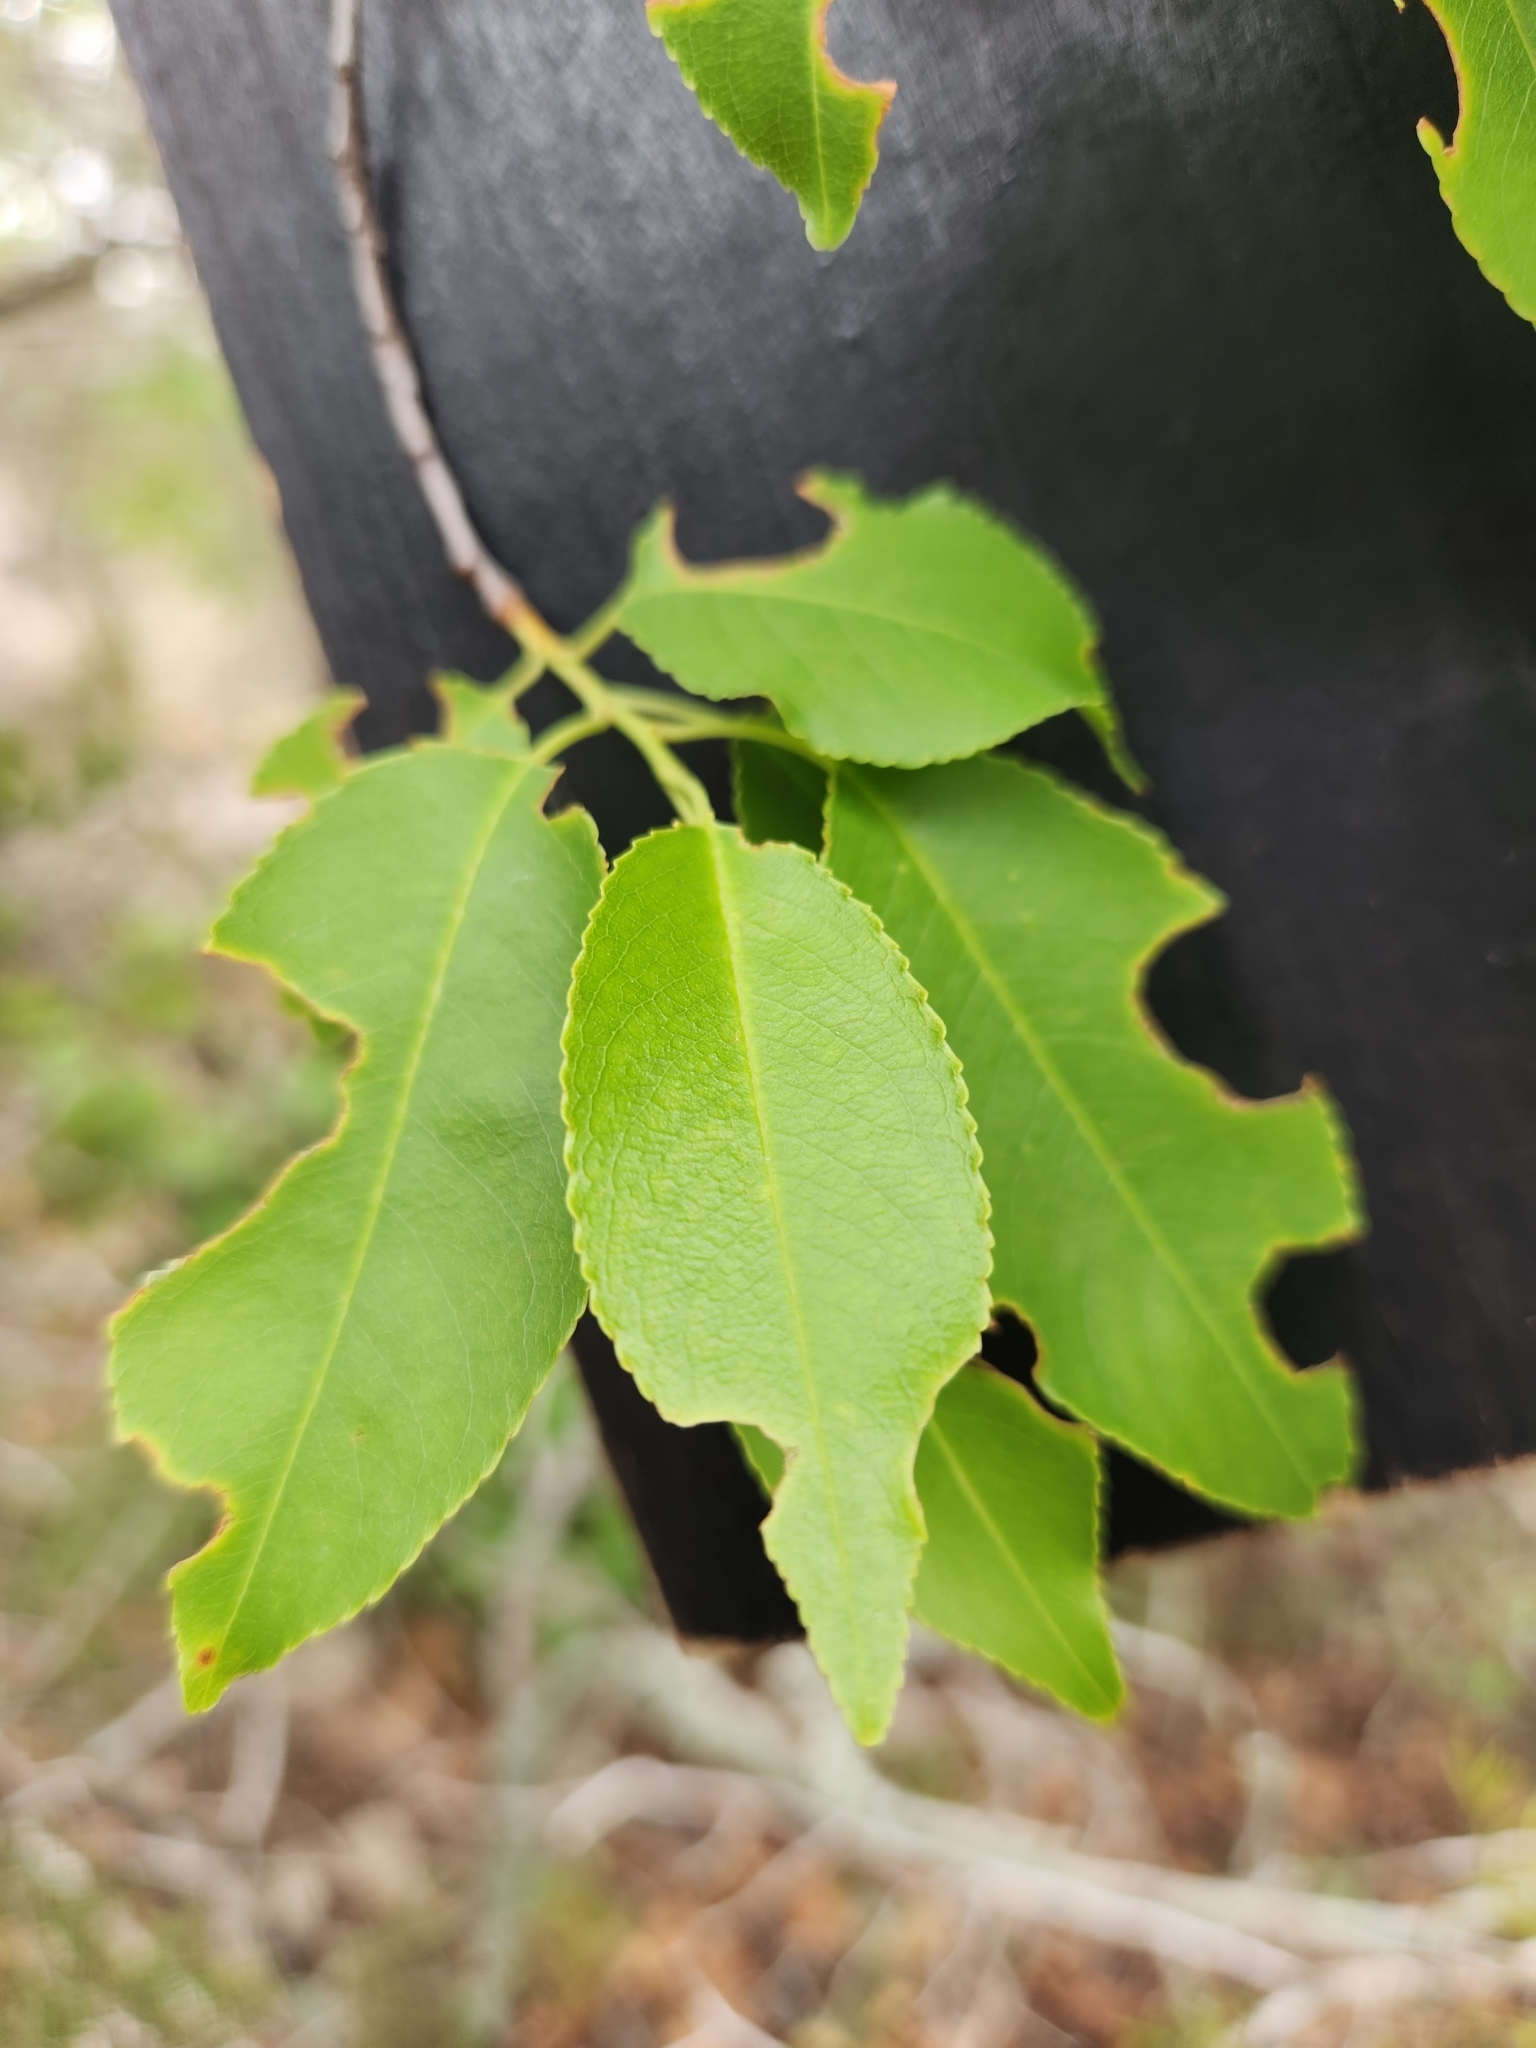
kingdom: Plantae
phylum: Tracheophyta
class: Magnoliopsida
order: Rosales
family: Rosaceae
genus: Prunus
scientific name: Prunus serotina
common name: Black cherry
